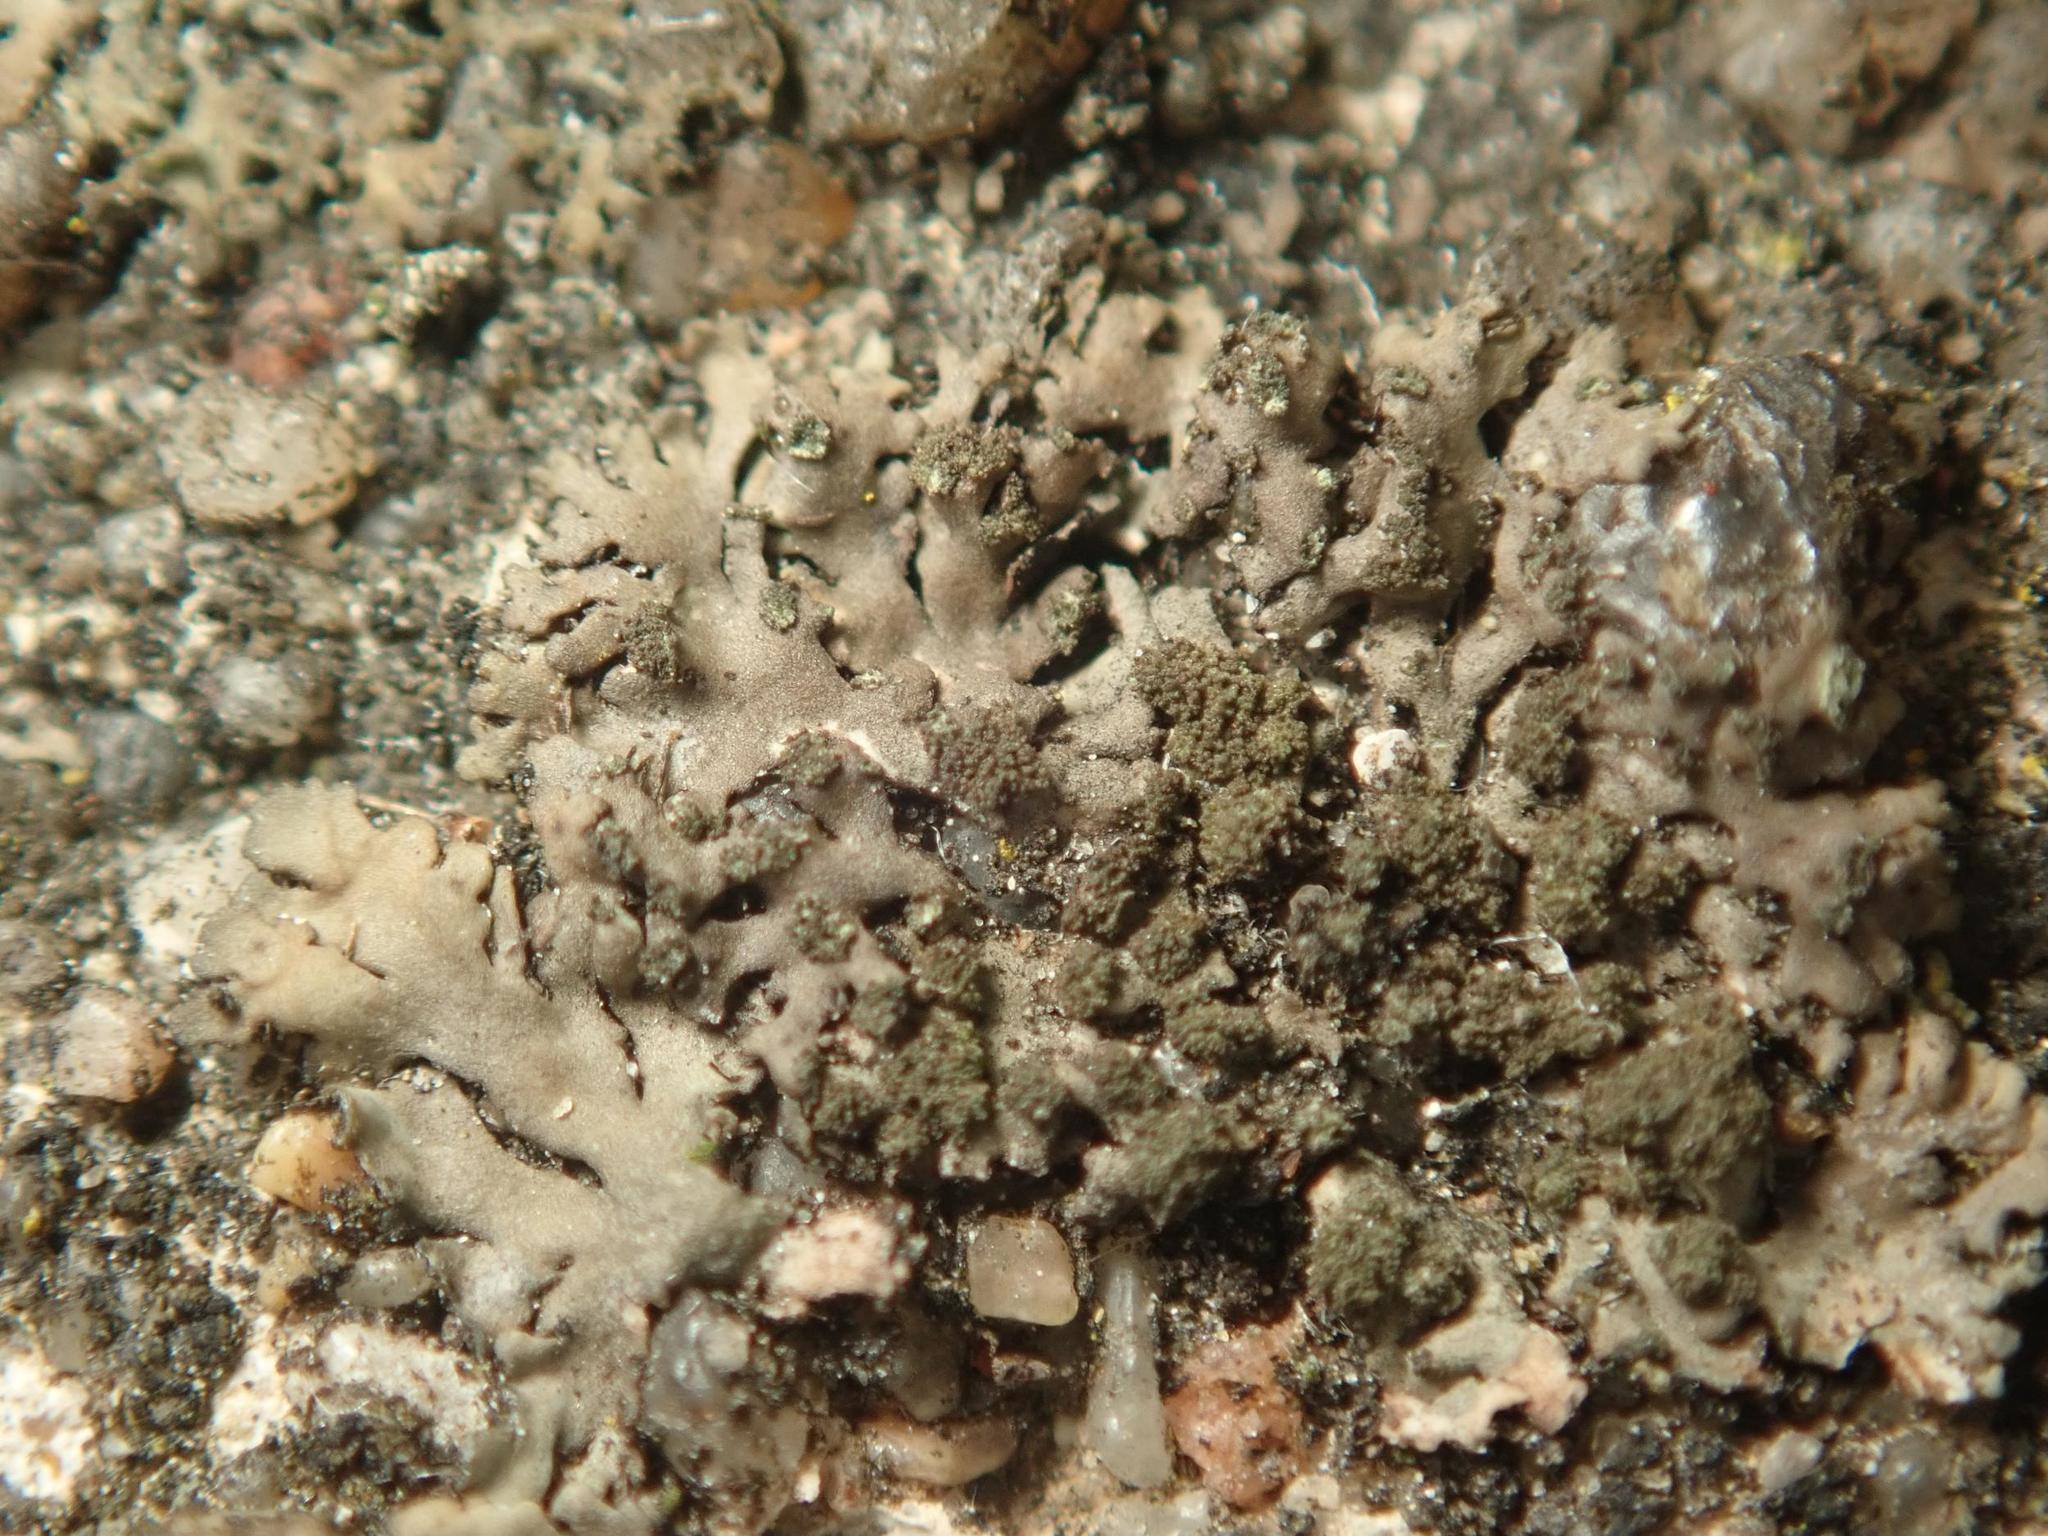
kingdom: Fungi
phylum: Ascomycota
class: Lecanoromycetes
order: Caliciales
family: Physciaceae
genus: Phaeophyscia
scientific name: Phaeophyscia orbicularis
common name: Mealy shadow lichen
